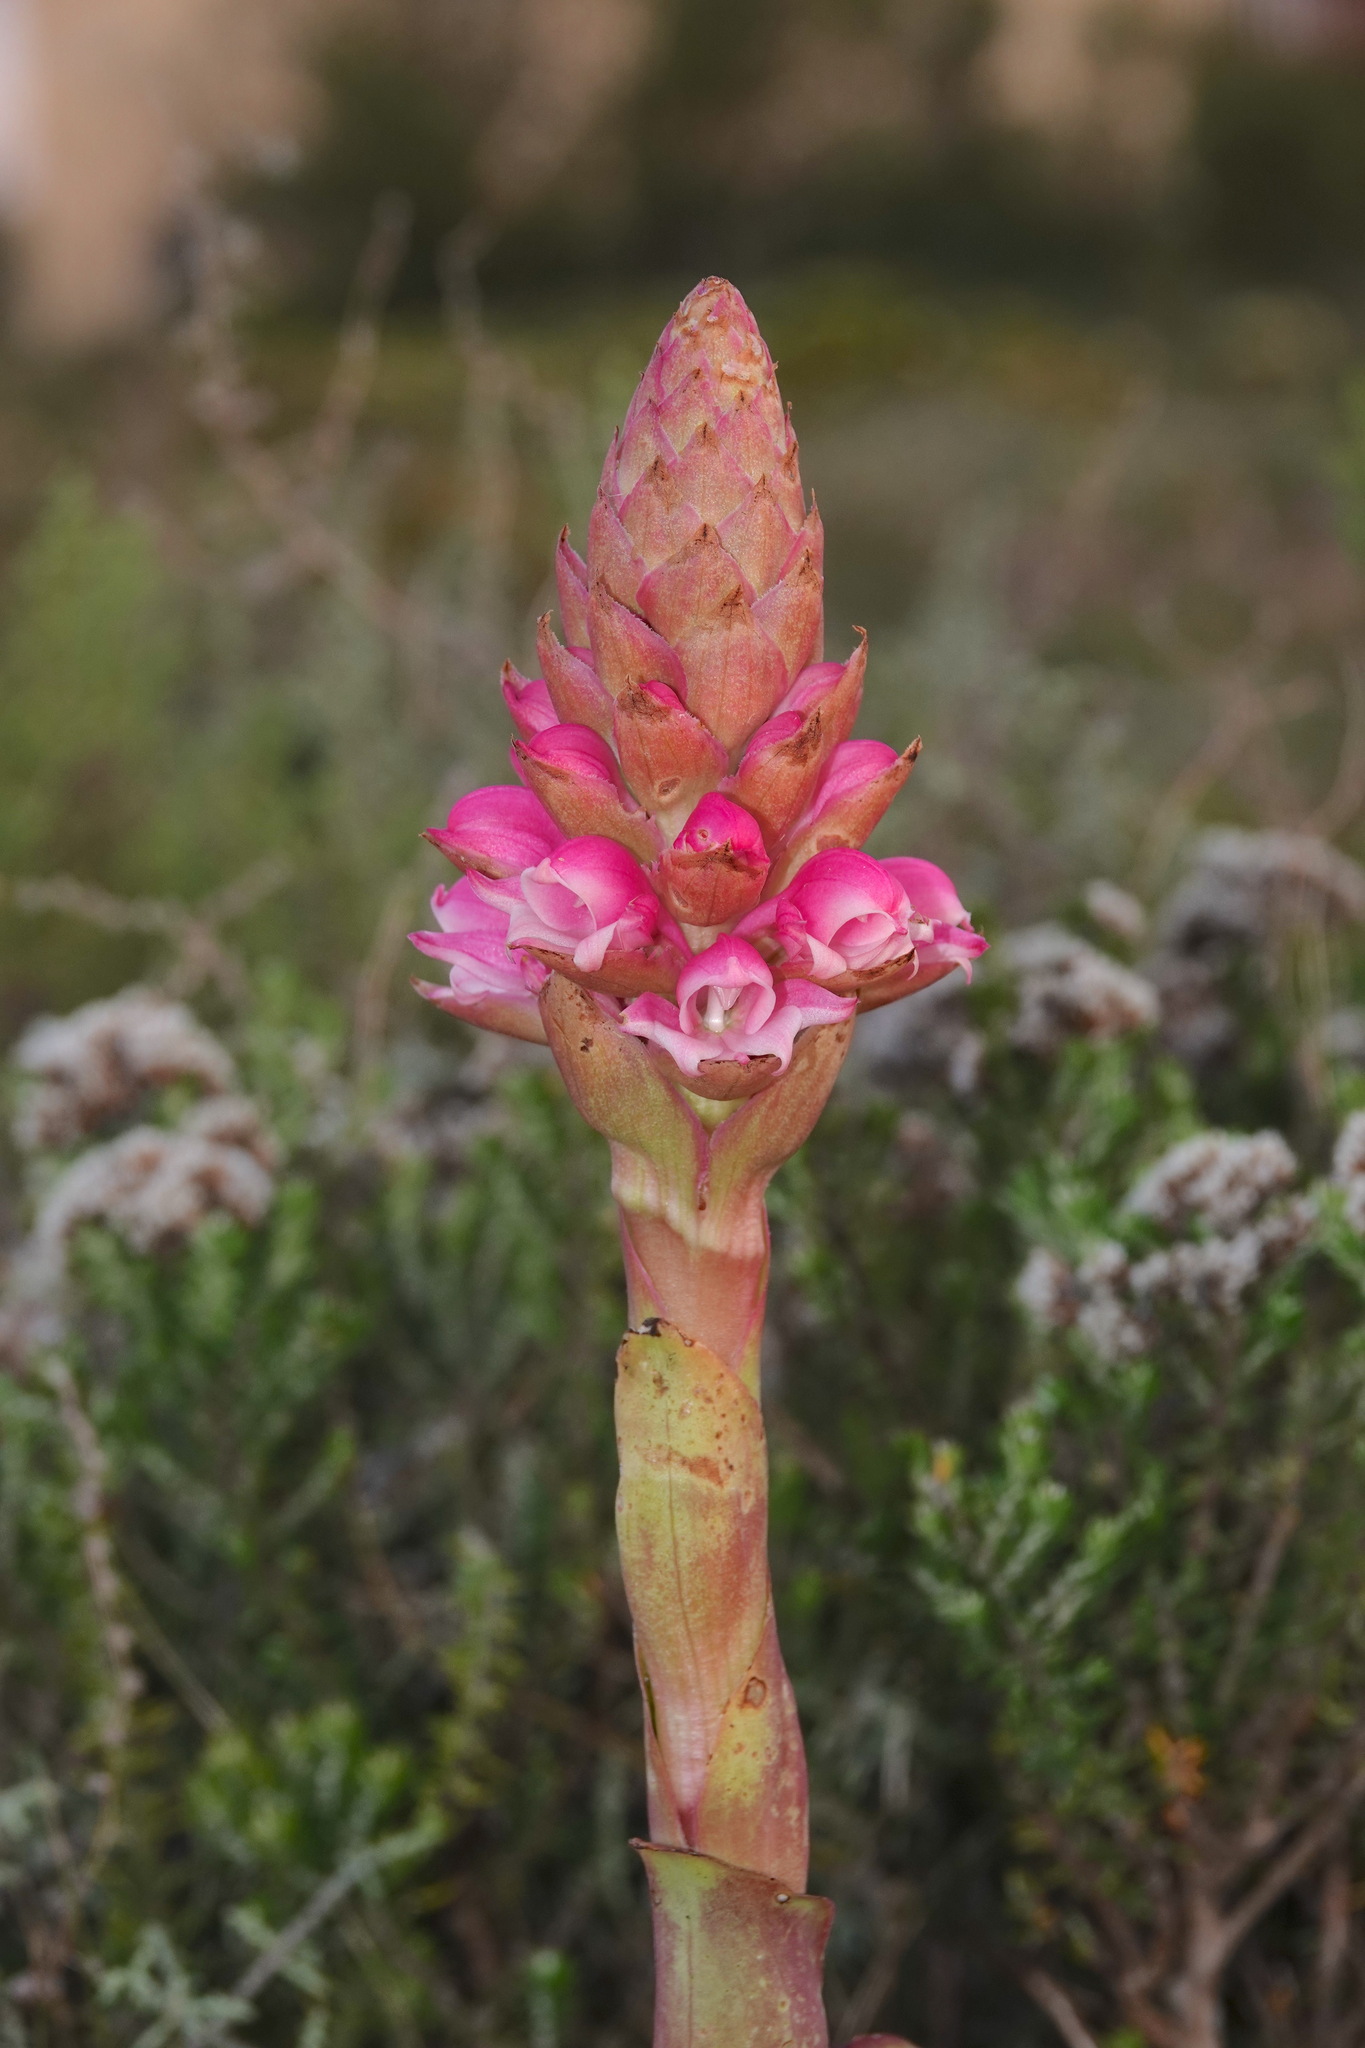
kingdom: Plantae
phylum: Tracheophyta
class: Liliopsida
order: Asparagales
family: Orchidaceae
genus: Satyrium
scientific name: Satyrium carneum
